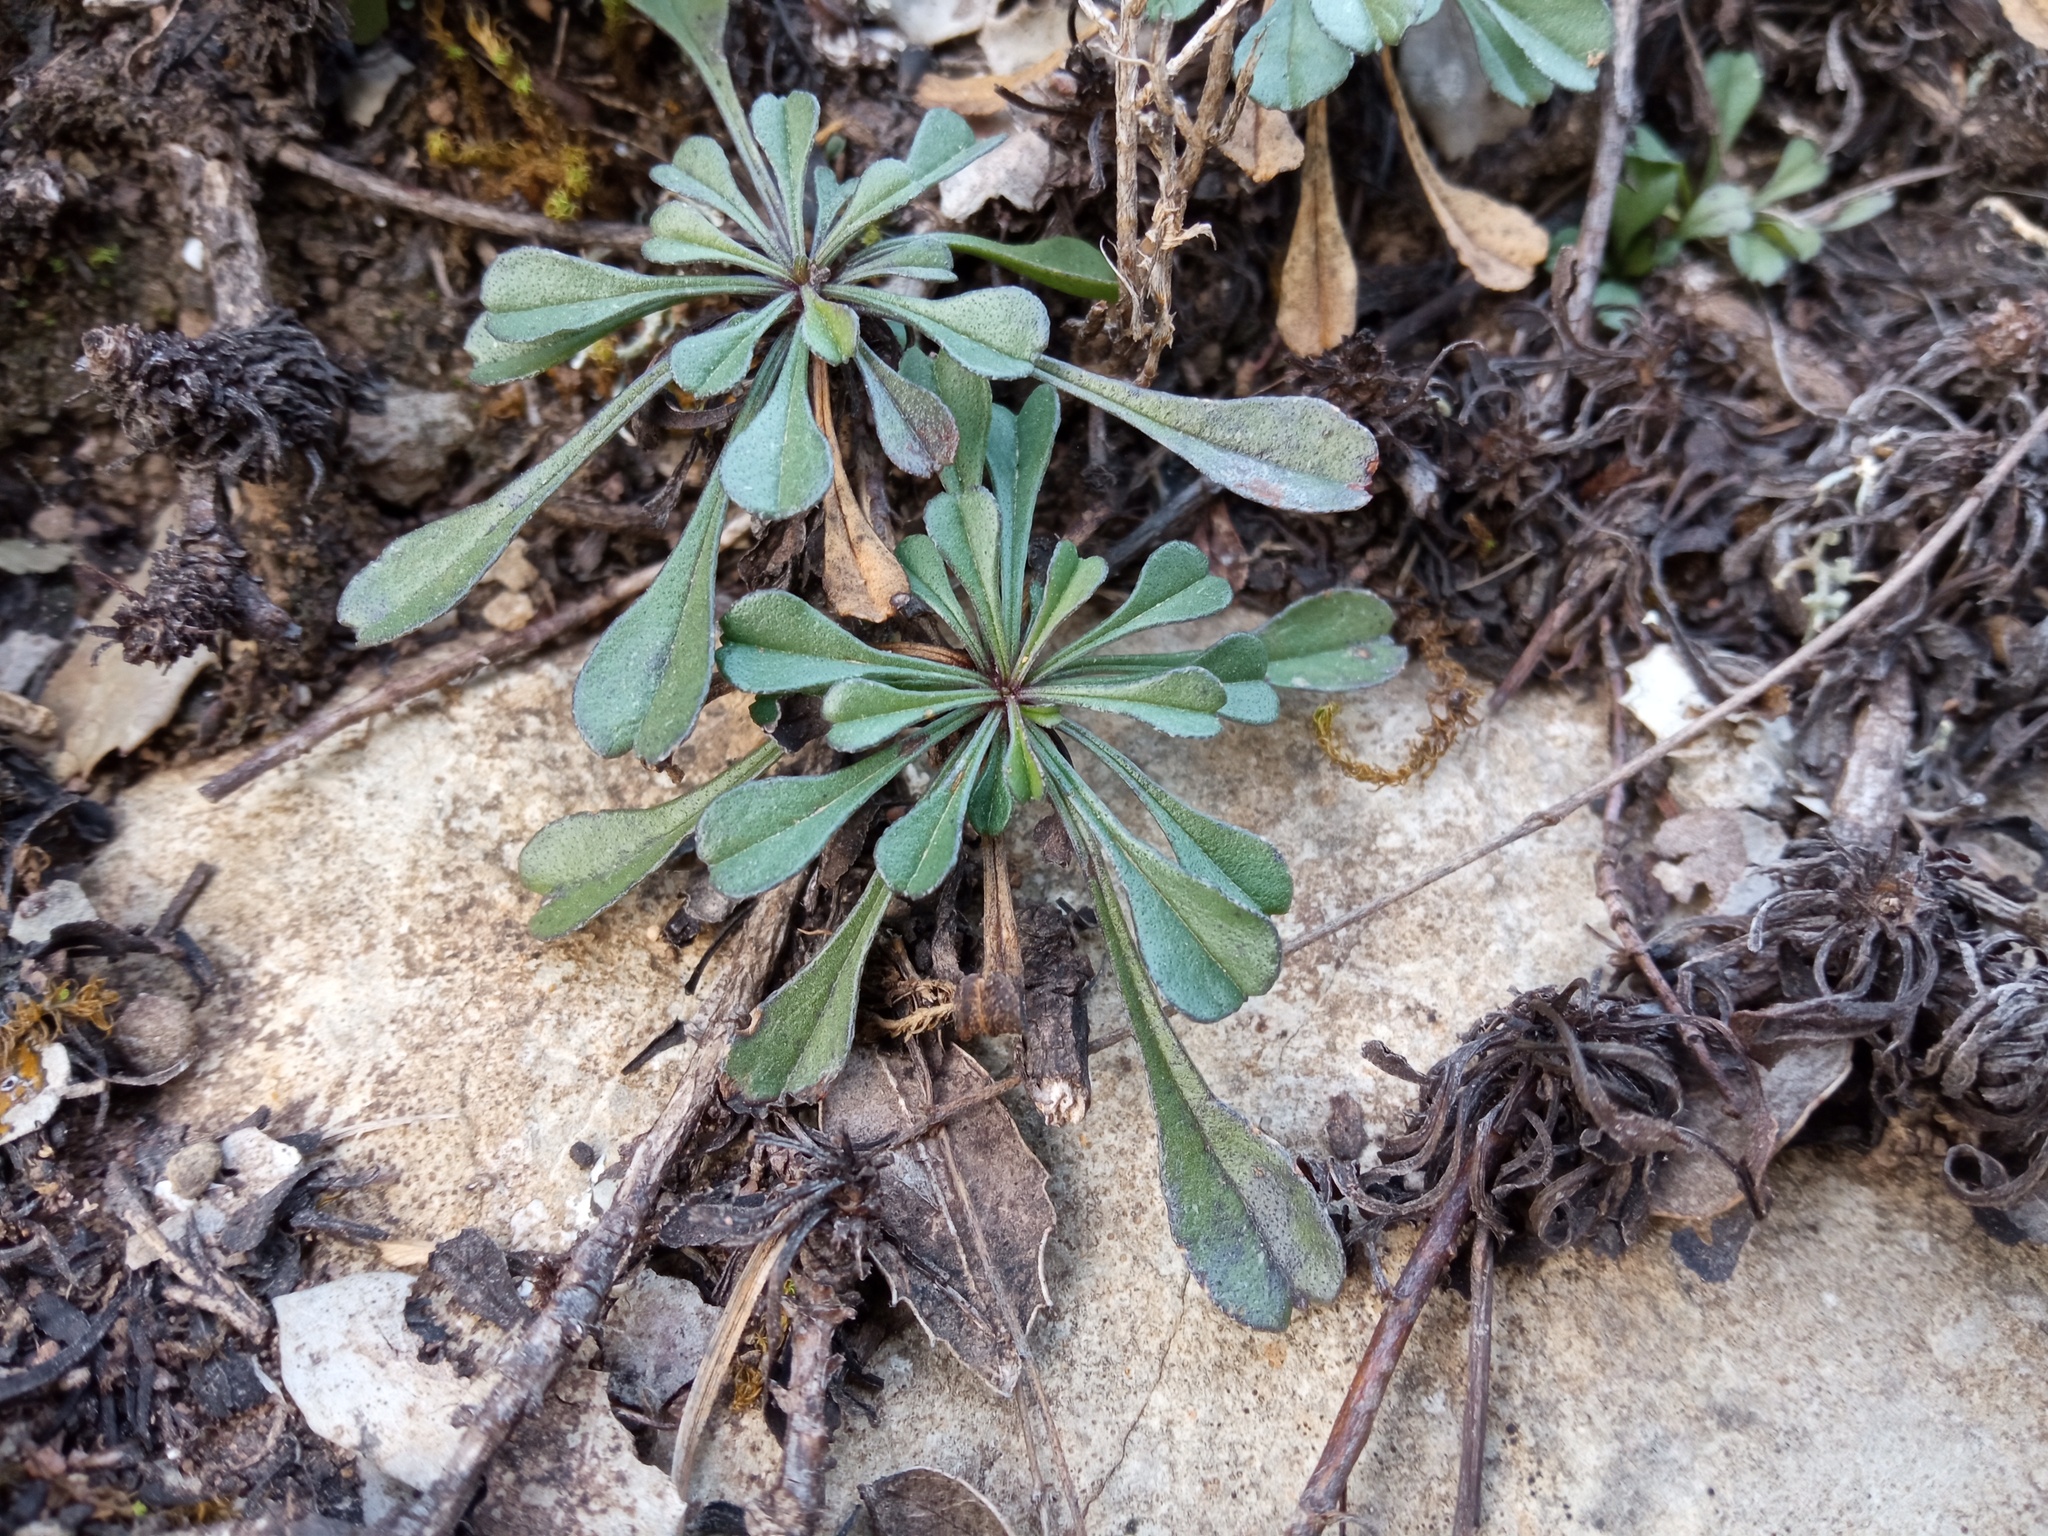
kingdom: Plantae
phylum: Tracheophyta
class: Magnoliopsida
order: Lamiales
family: Plantaginaceae
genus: Globularia
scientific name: Globularia cordifolia
